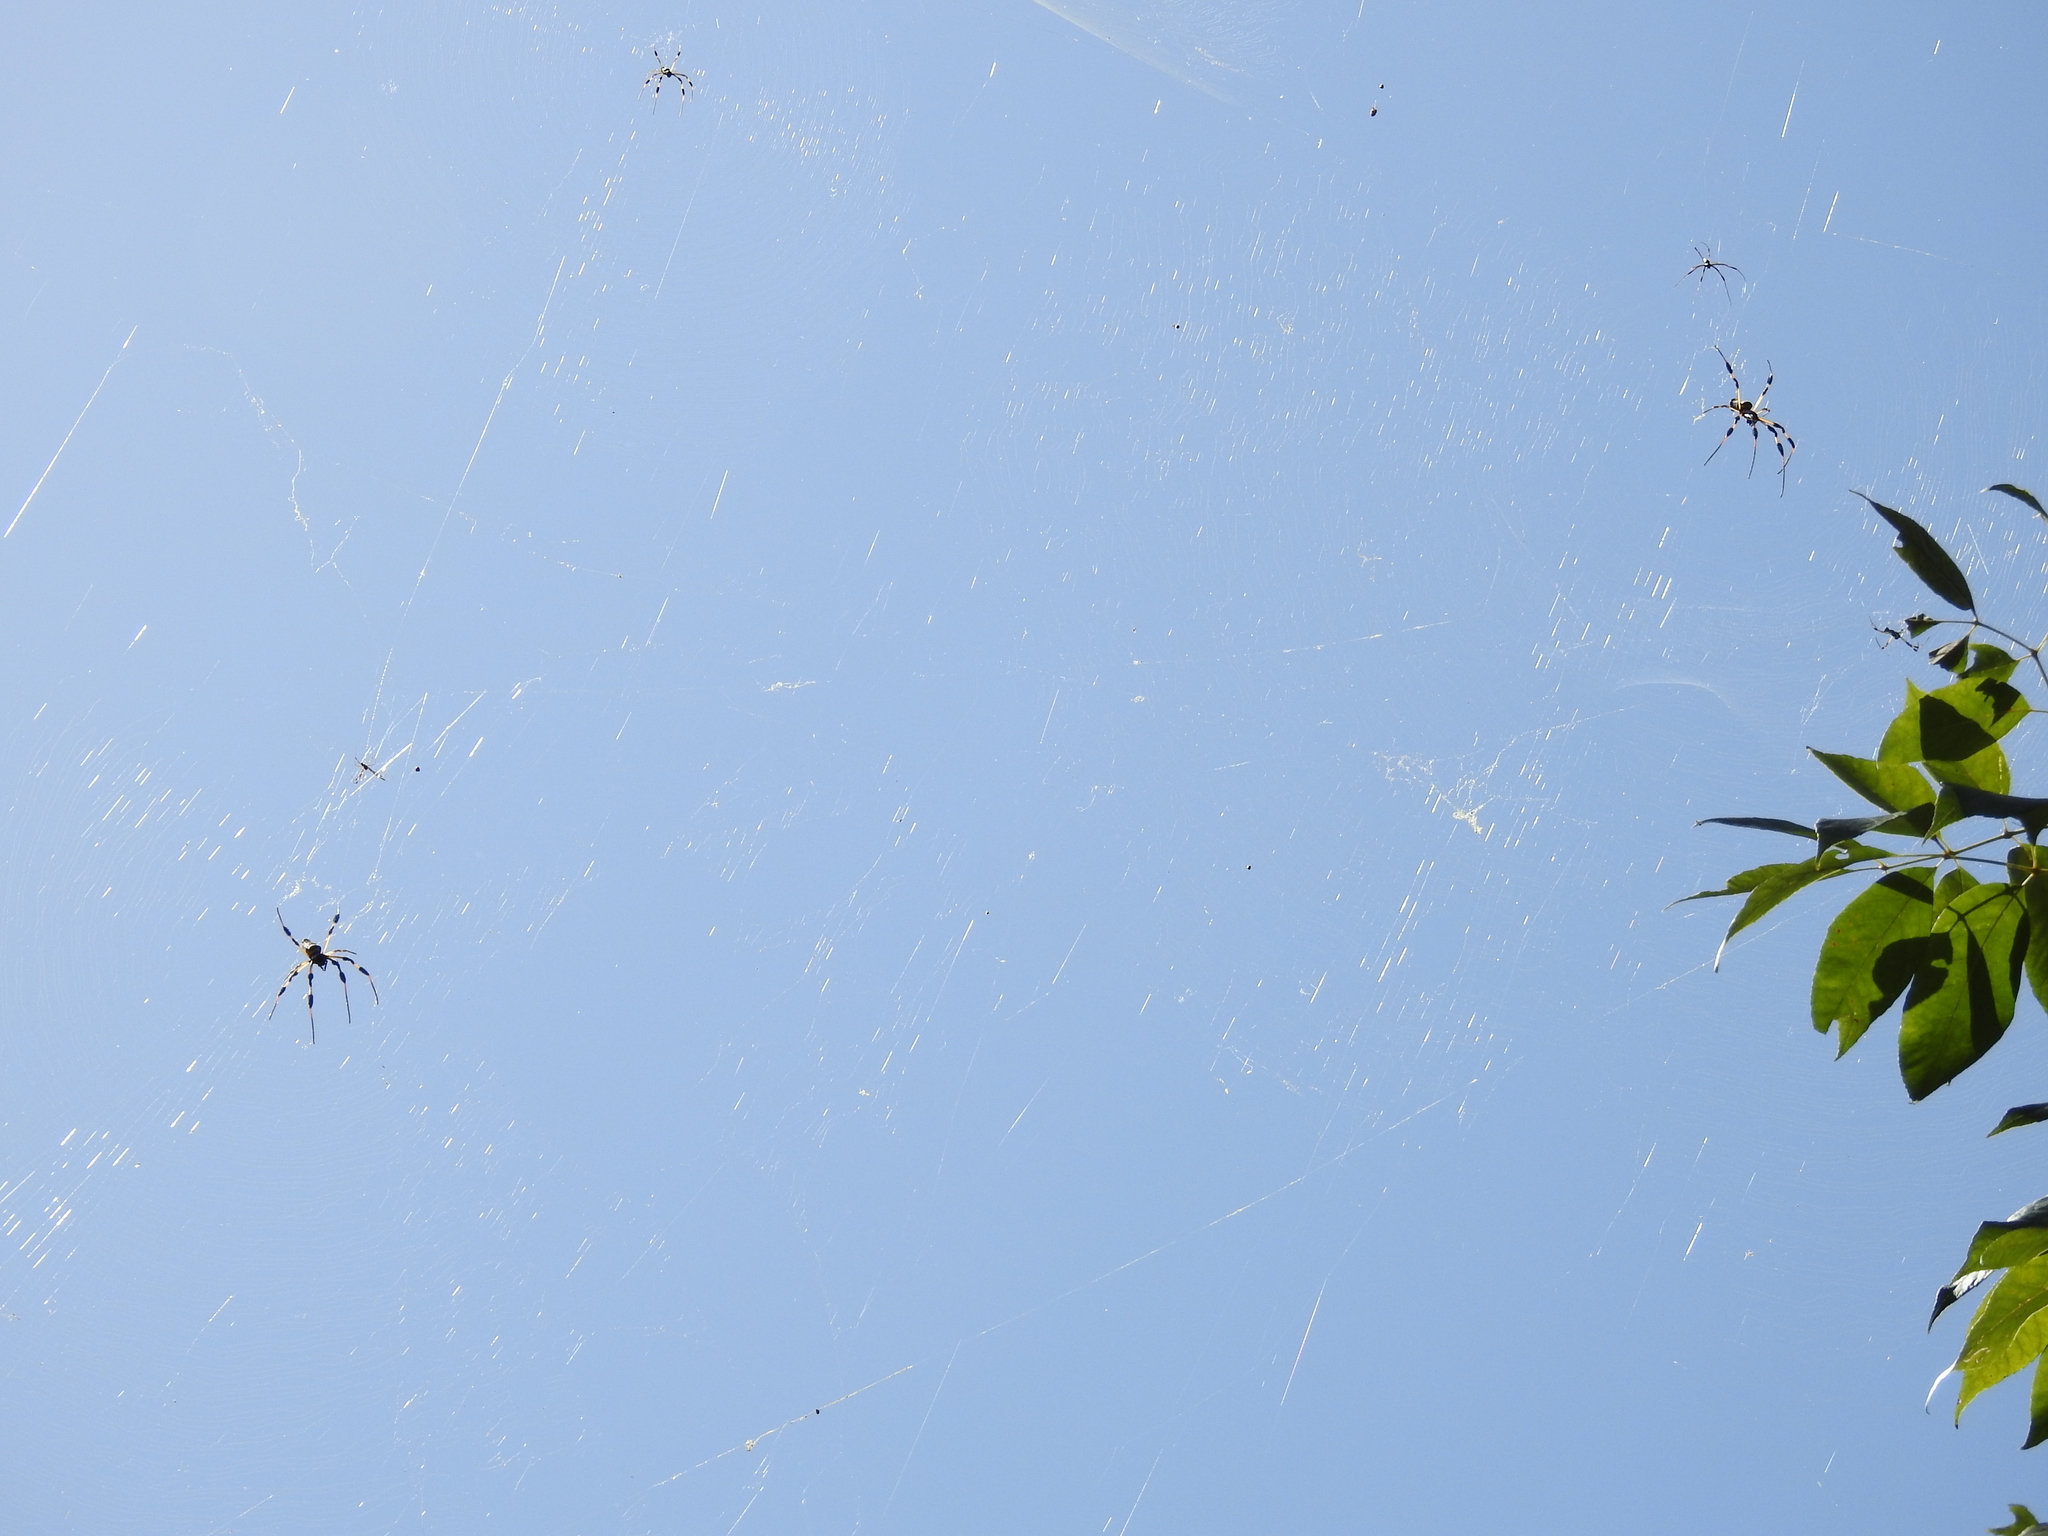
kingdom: Animalia
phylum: Arthropoda
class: Arachnida
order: Araneae
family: Araneidae
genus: Trichonephila
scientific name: Trichonephila clavipes
